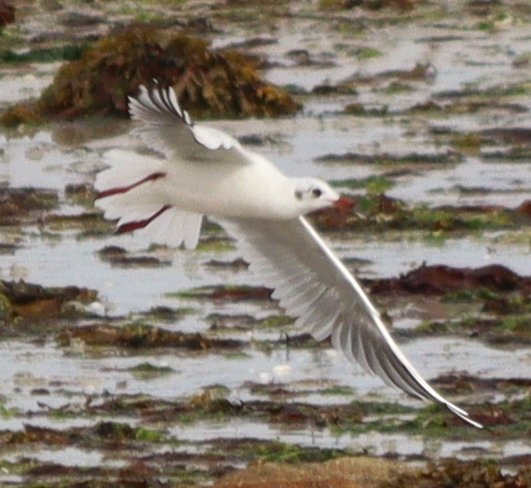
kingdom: Animalia
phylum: Chordata
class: Aves
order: Charadriiformes
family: Laridae
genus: Chroicocephalus
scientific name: Chroicocephalus ridibundus
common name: Black-headed gull
